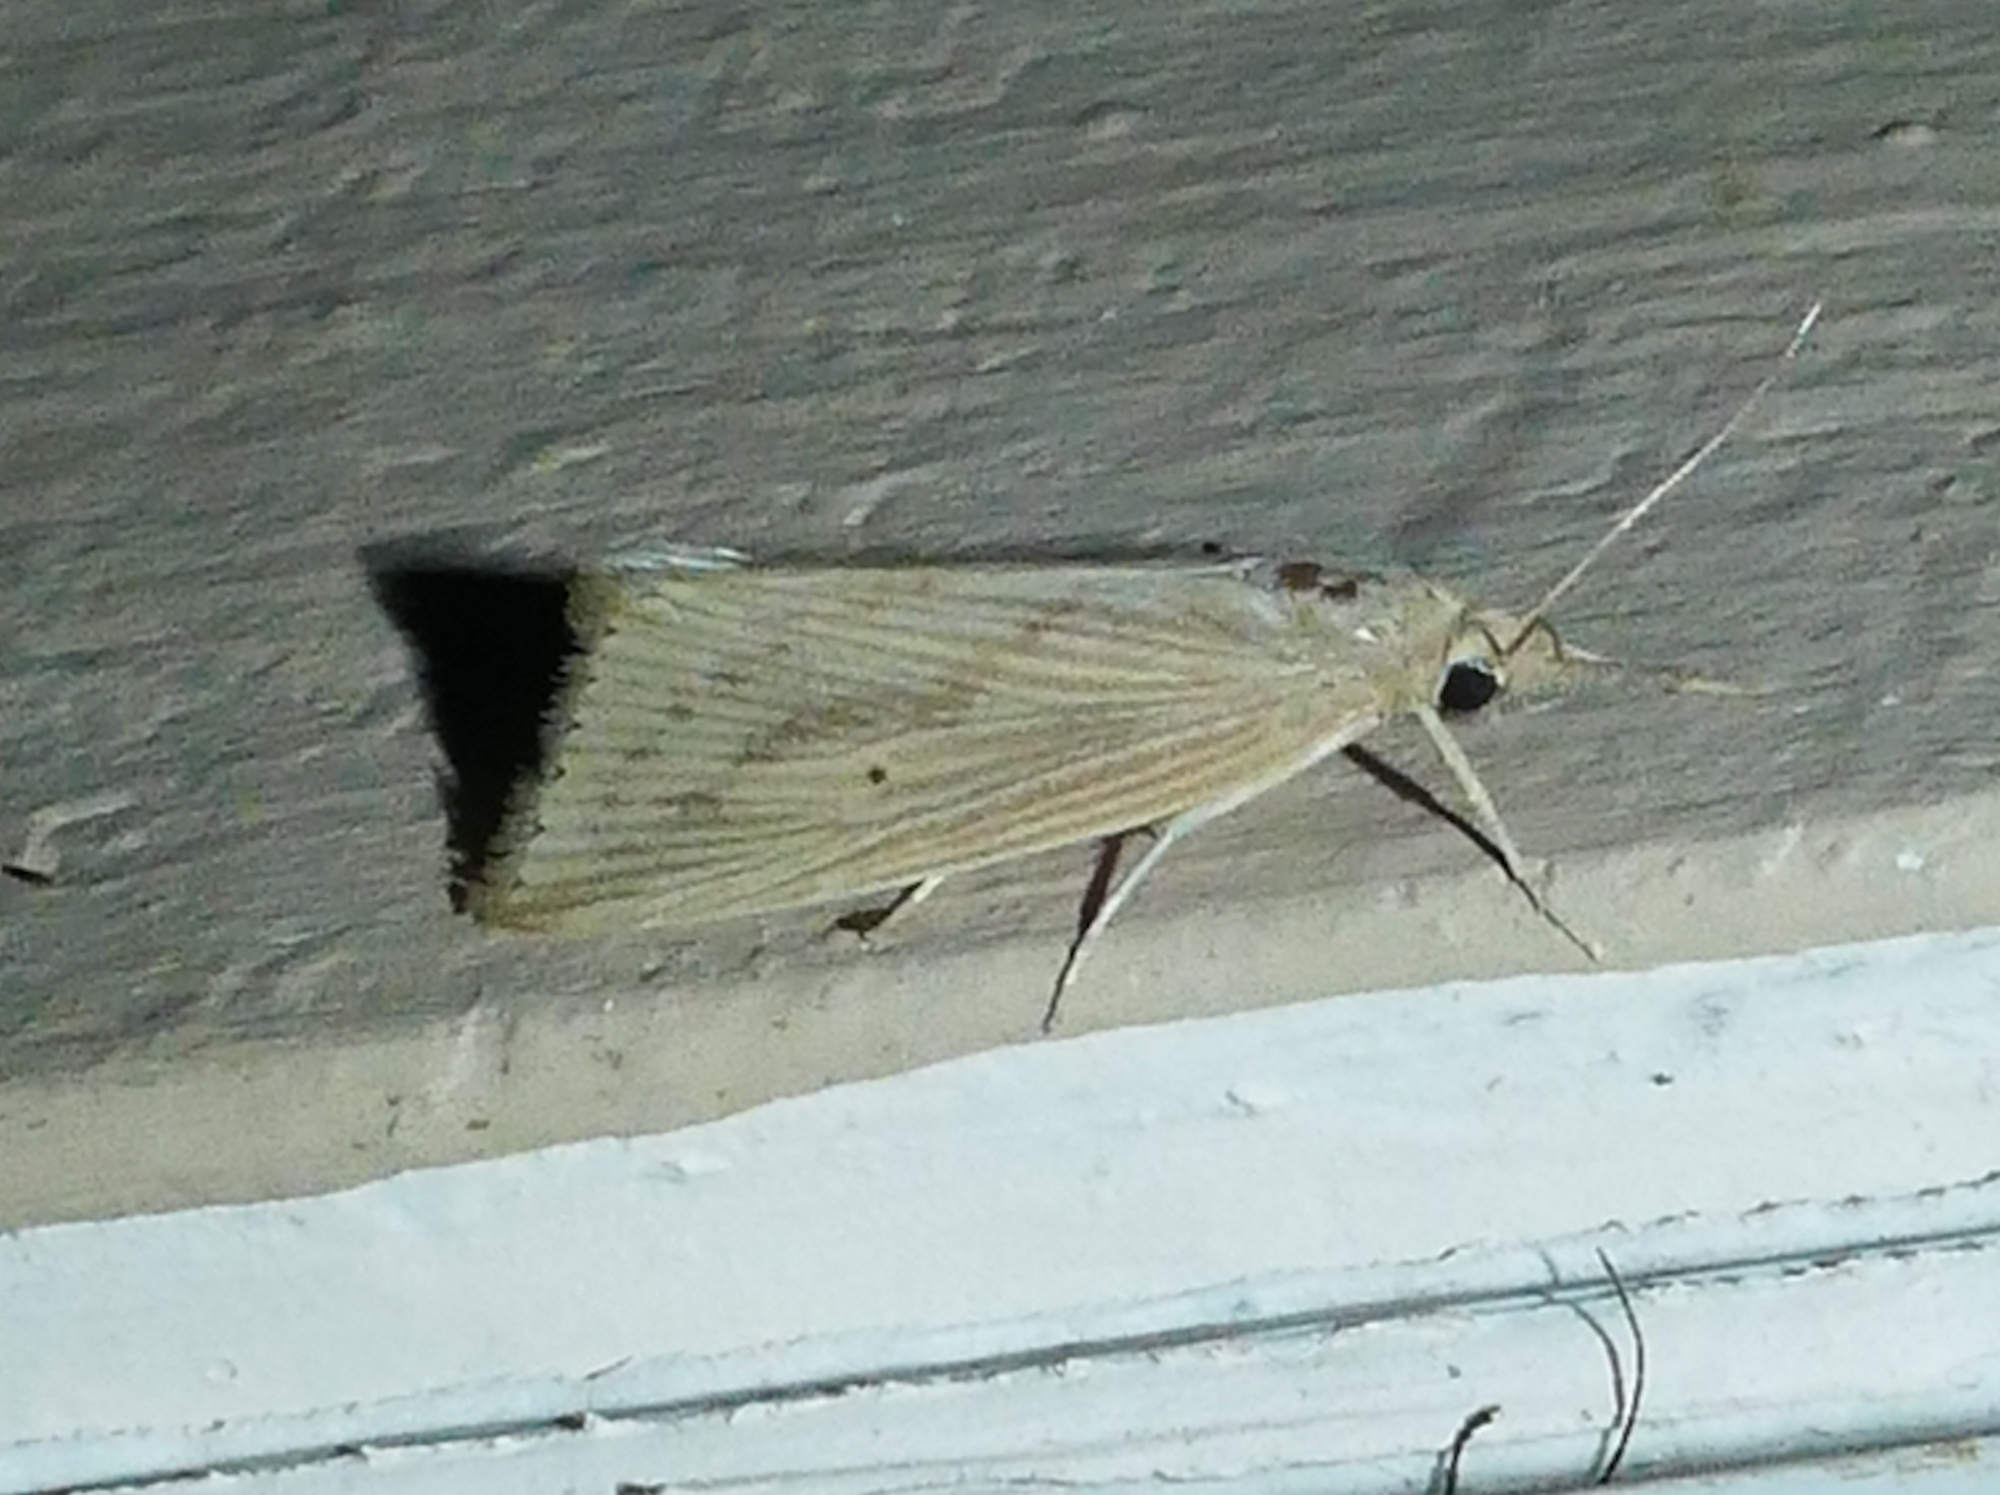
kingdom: Animalia
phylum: Arthropoda
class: Insecta
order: Lepidoptera
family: Crambidae
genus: Diatraea
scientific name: Diatraea lisetta
